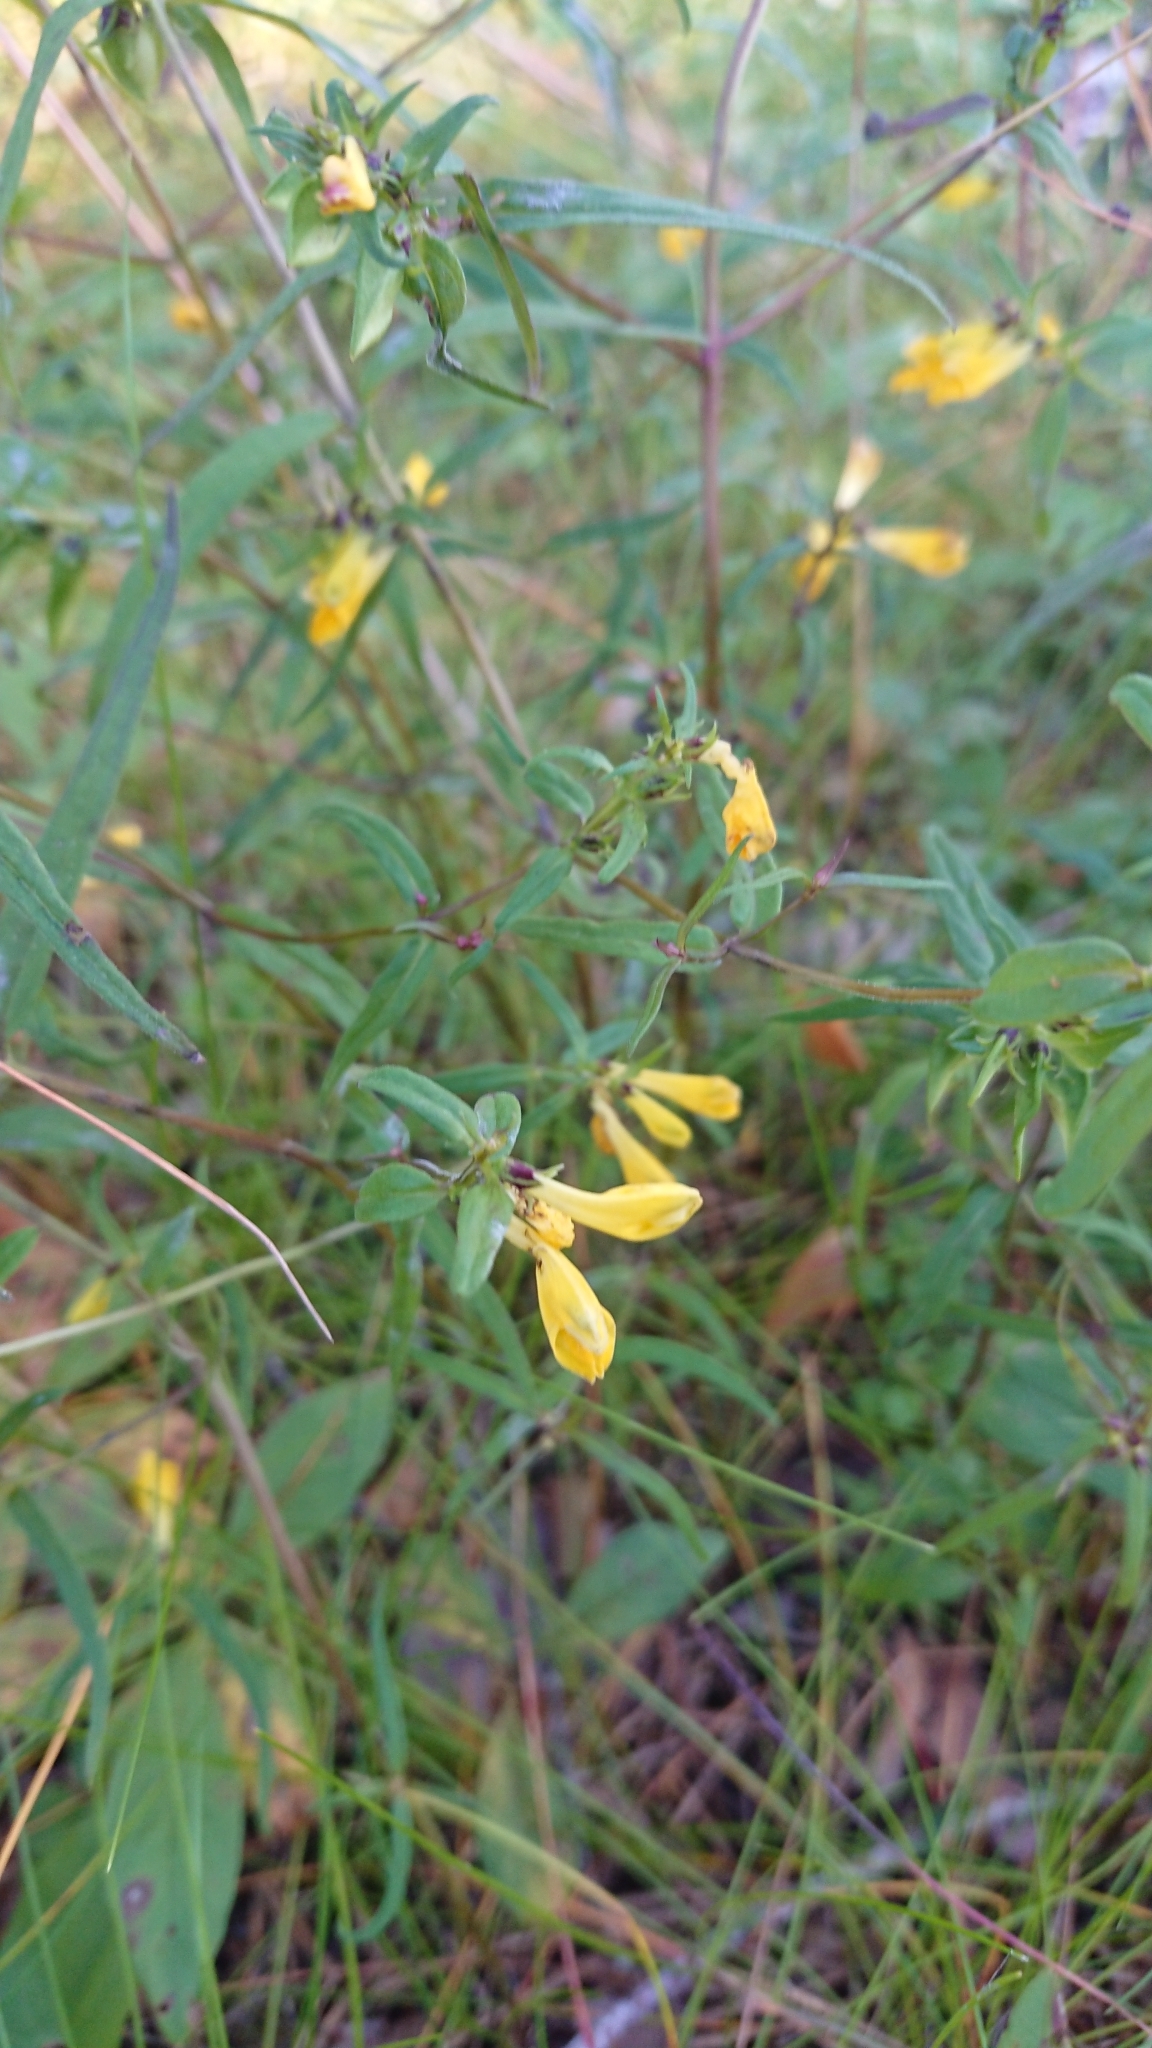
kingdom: Plantae
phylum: Tracheophyta
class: Magnoliopsida
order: Lamiales
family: Orobanchaceae
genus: Melampyrum
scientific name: Melampyrum pratense
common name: Common cow-wheat
